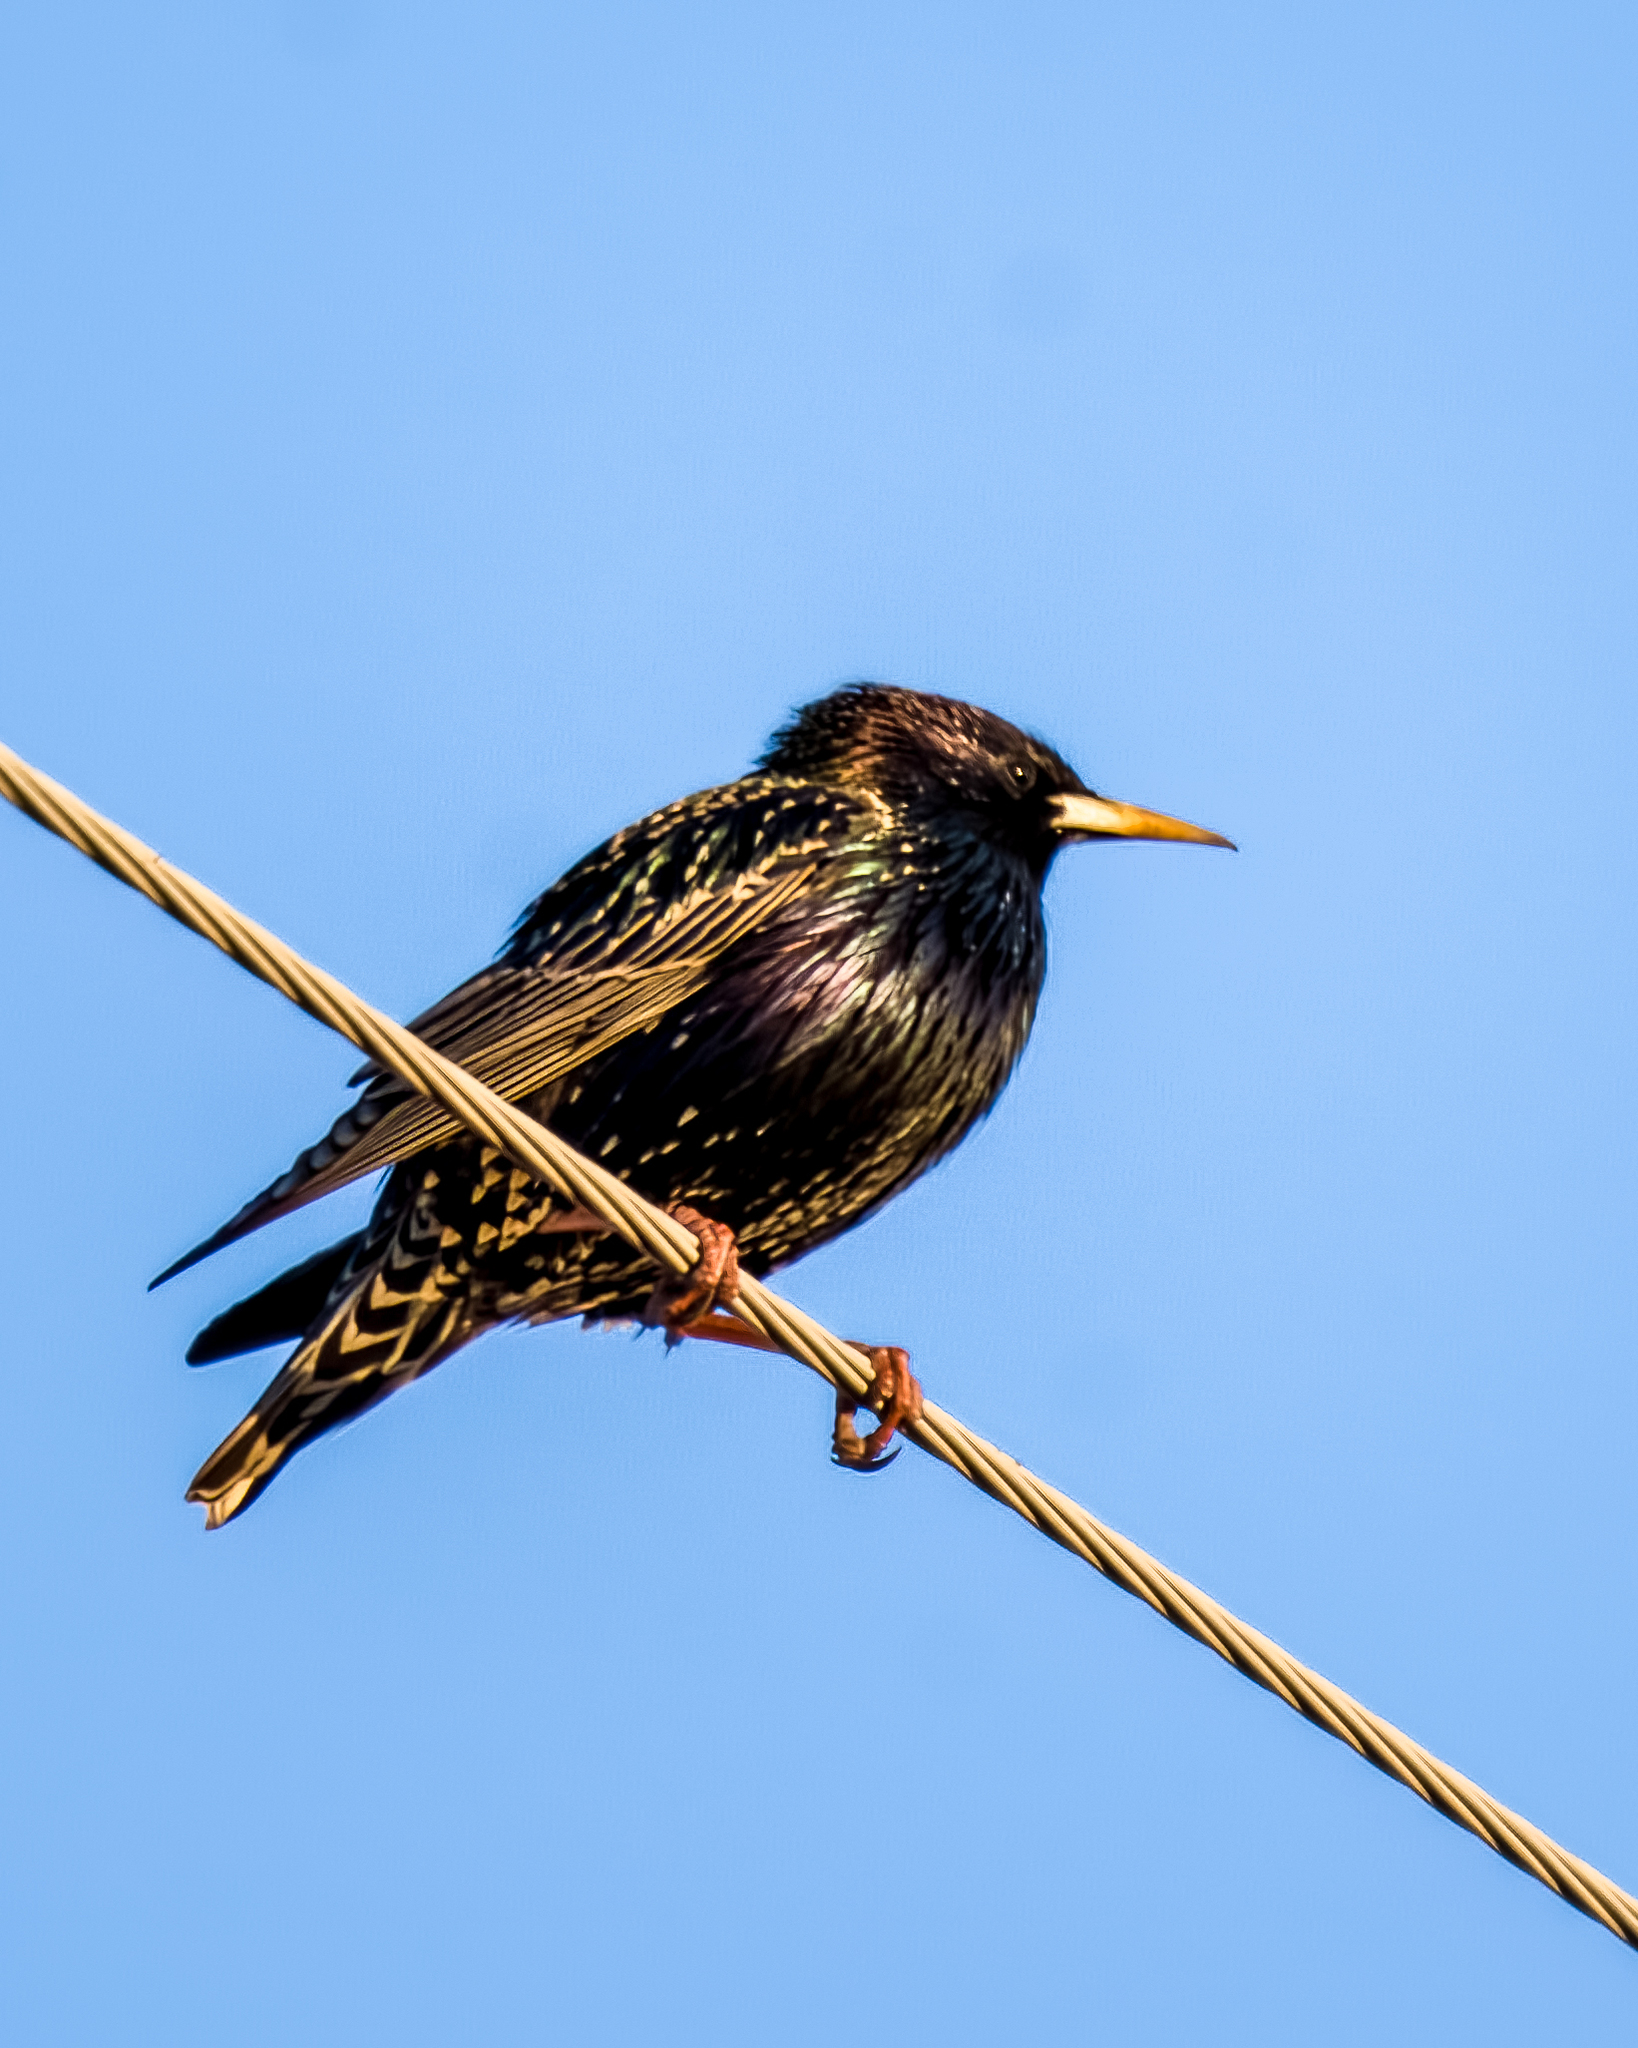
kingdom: Animalia
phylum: Chordata
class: Aves
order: Passeriformes
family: Sturnidae
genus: Sturnus
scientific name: Sturnus vulgaris
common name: Common starling
